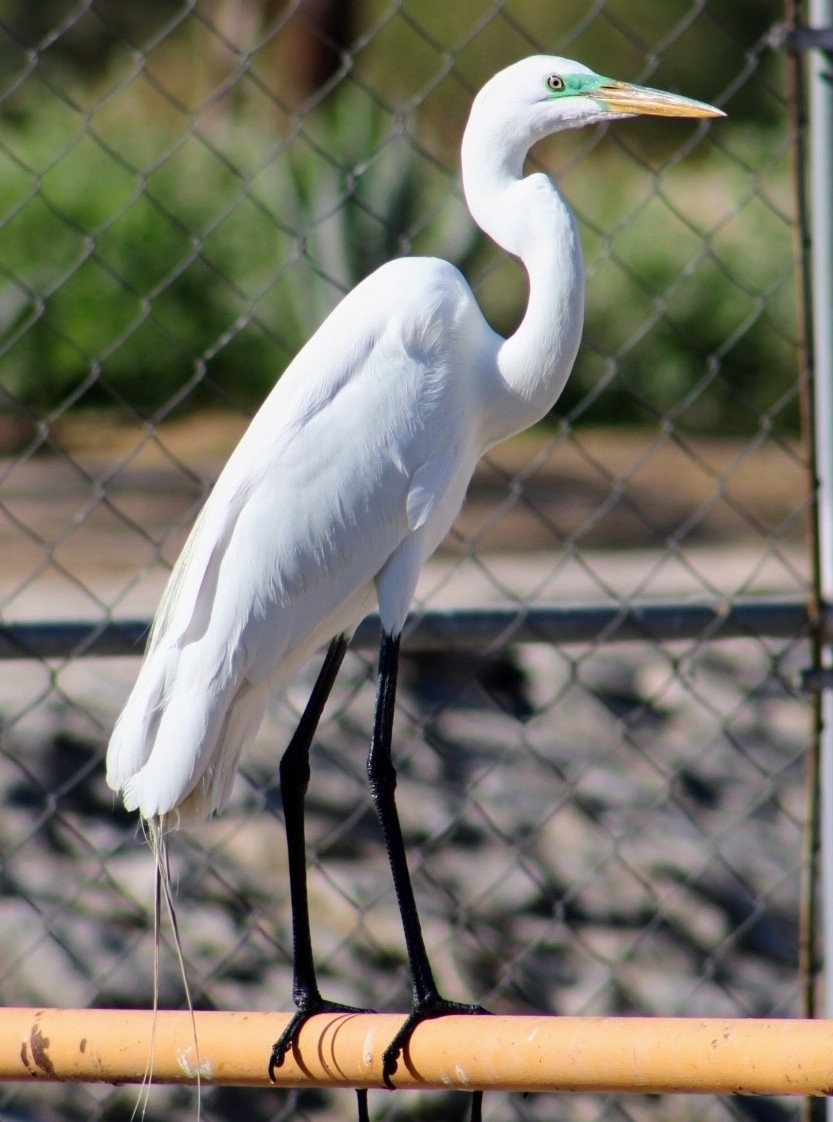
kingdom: Animalia
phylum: Chordata
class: Aves
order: Pelecaniformes
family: Ardeidae
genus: Ardea
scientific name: Ardea alba
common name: Great egret
